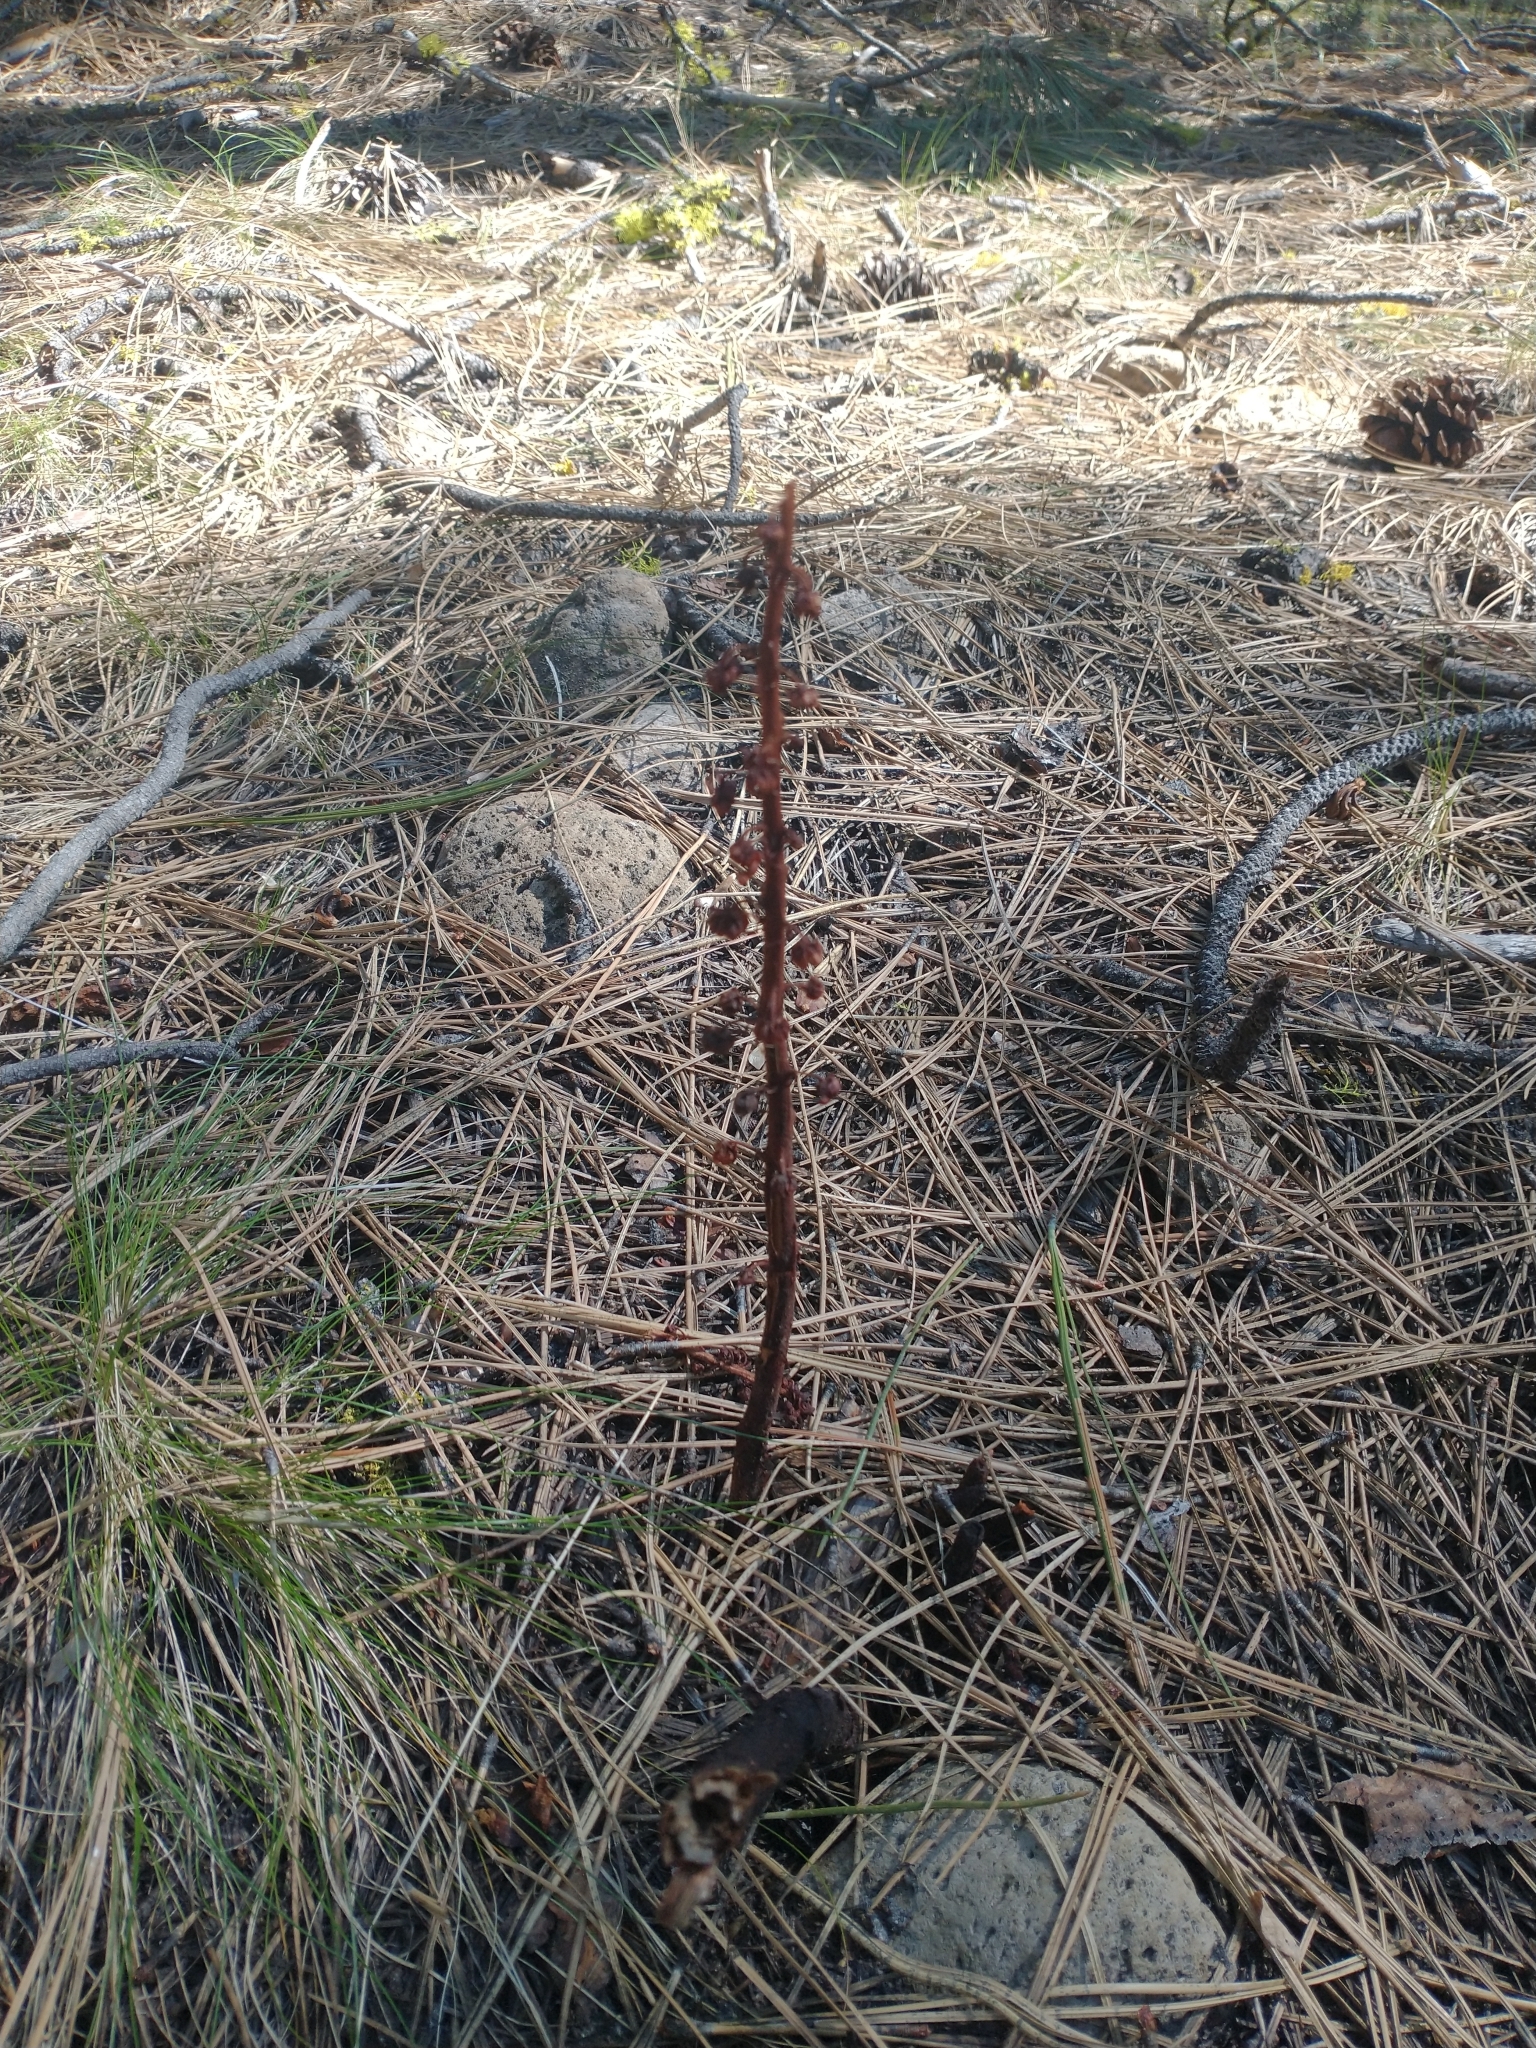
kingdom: Plantae
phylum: Tracheophyta
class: Magnoliopsida
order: Ericales
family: Ericaceae
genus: Pterospora
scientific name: Pterospora andromedea
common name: Giant bird's-nest
